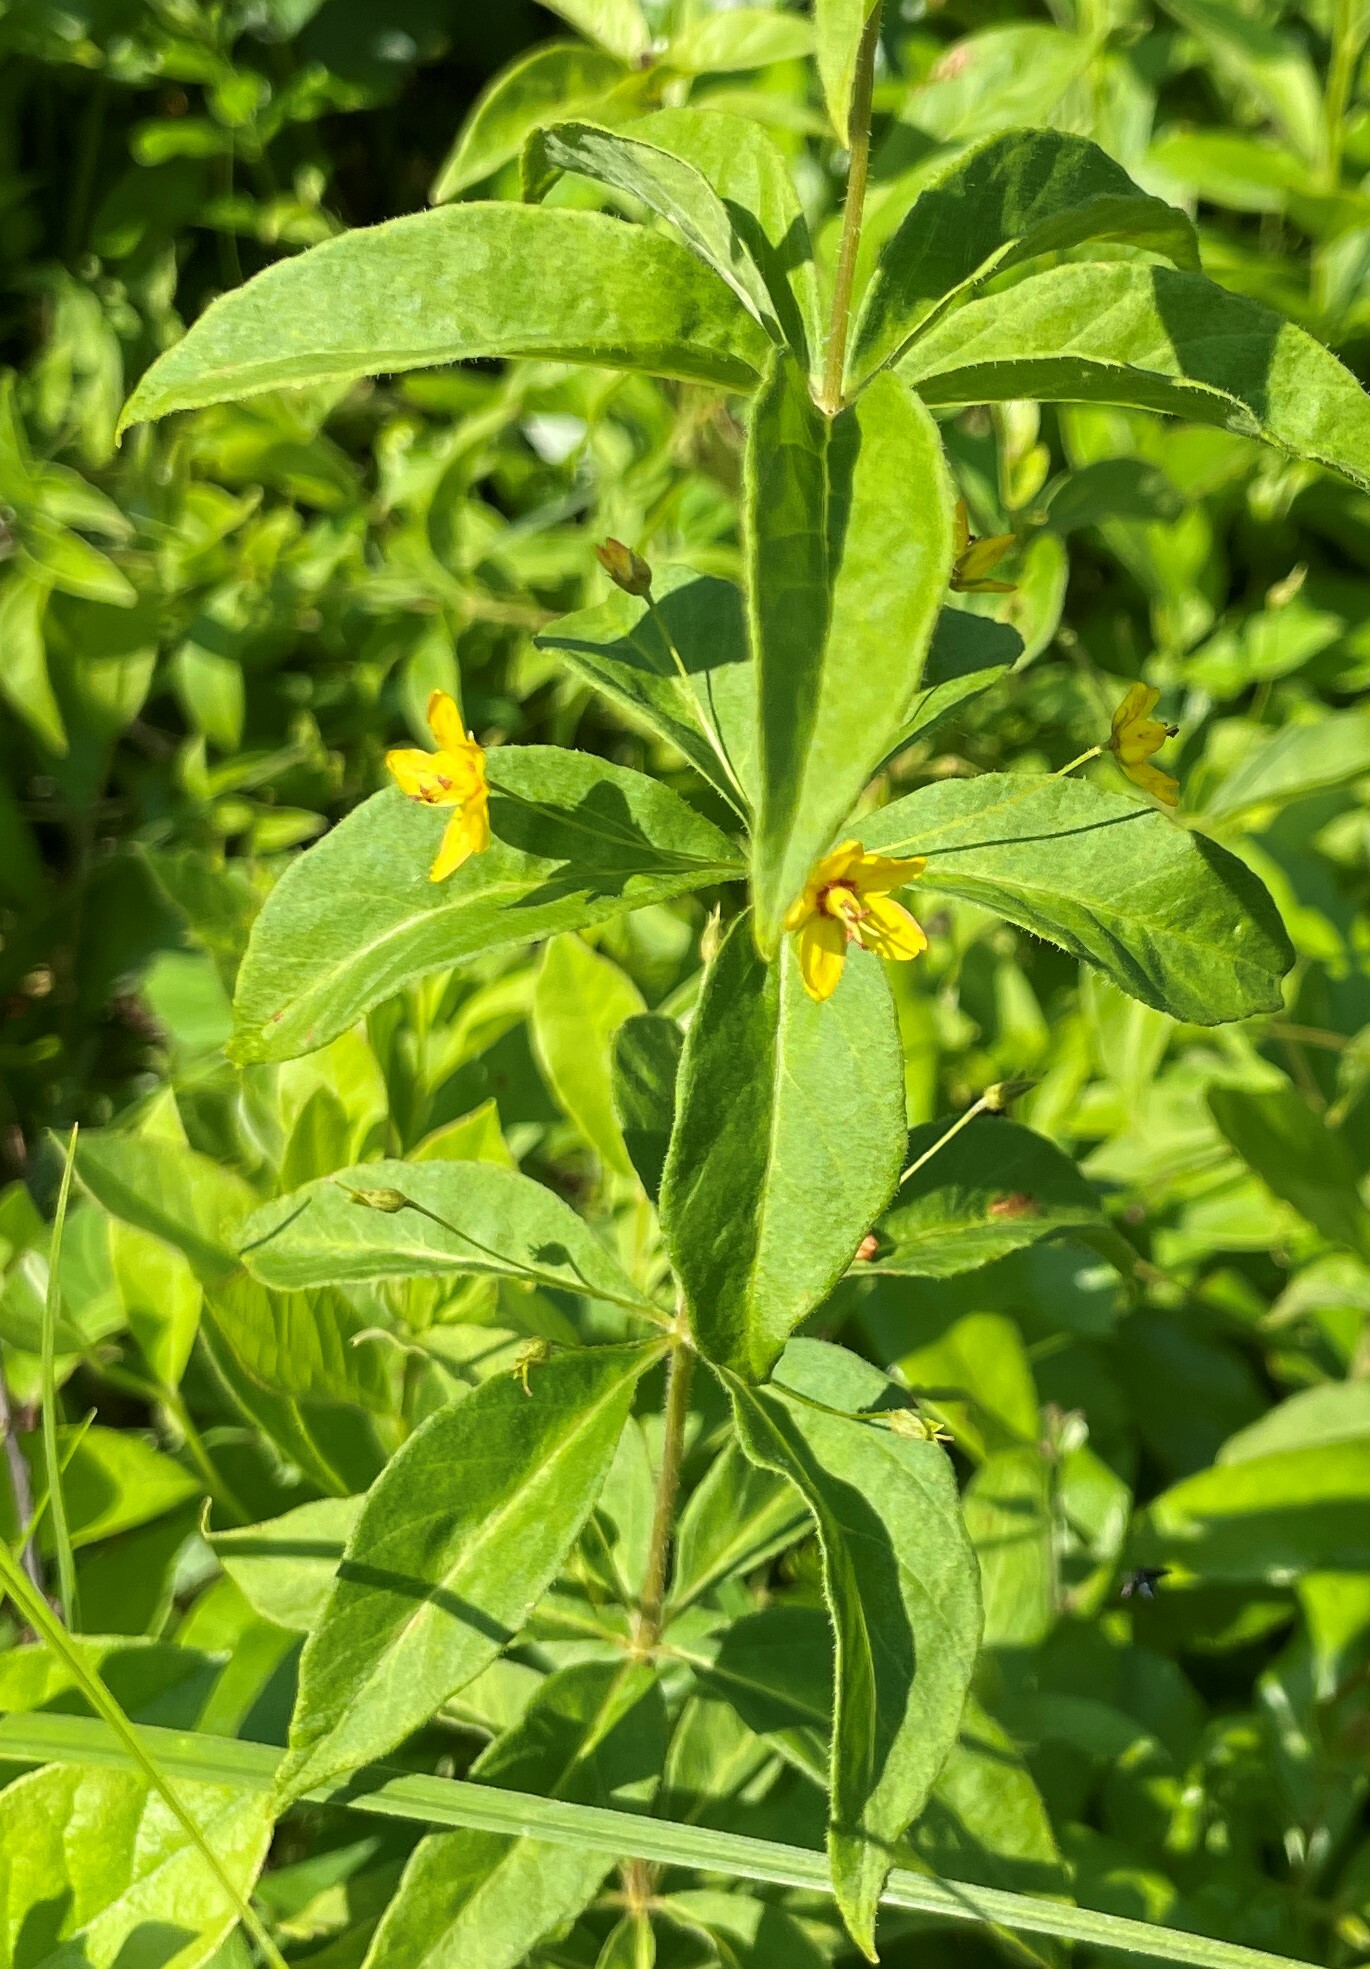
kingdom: Plantae
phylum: Tracheophyta
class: Magnoliopsida
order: Ericales
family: Primulaceae
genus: Lysimachia
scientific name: Lysimachia quadrifolia
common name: Whorled loosestrife
